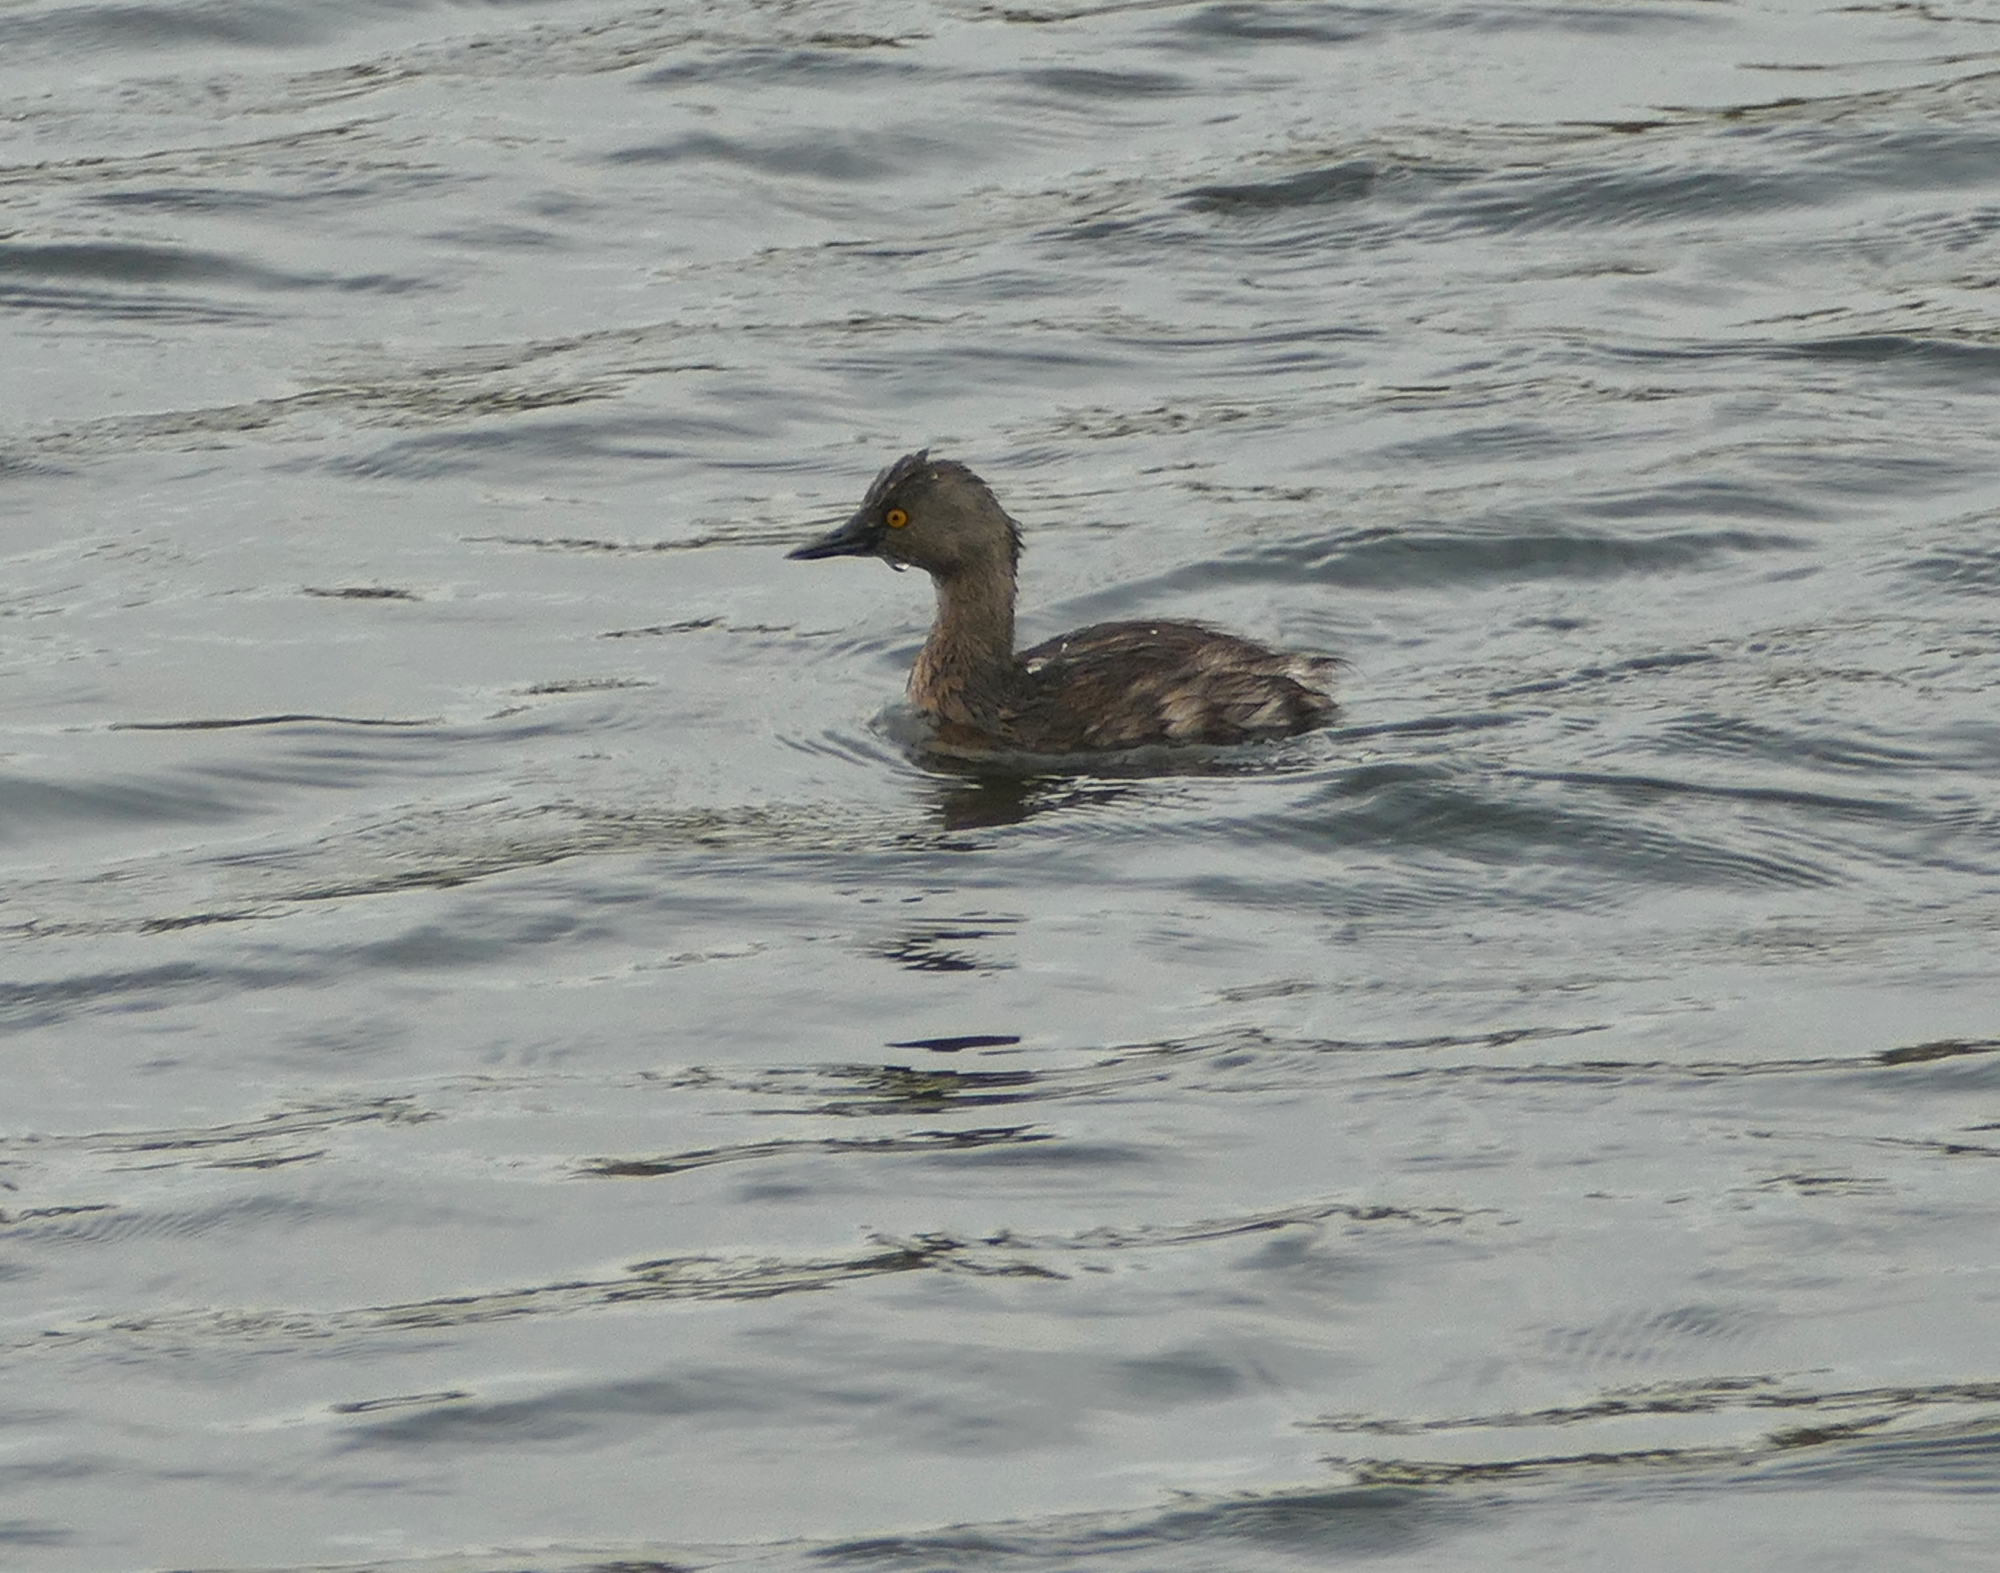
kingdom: Animalia
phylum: Chordata
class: Aves
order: Podicipediformes
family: Podicipedidae
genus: Tachybaptus
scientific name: Tachybaptus dominicus
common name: Least grebe
